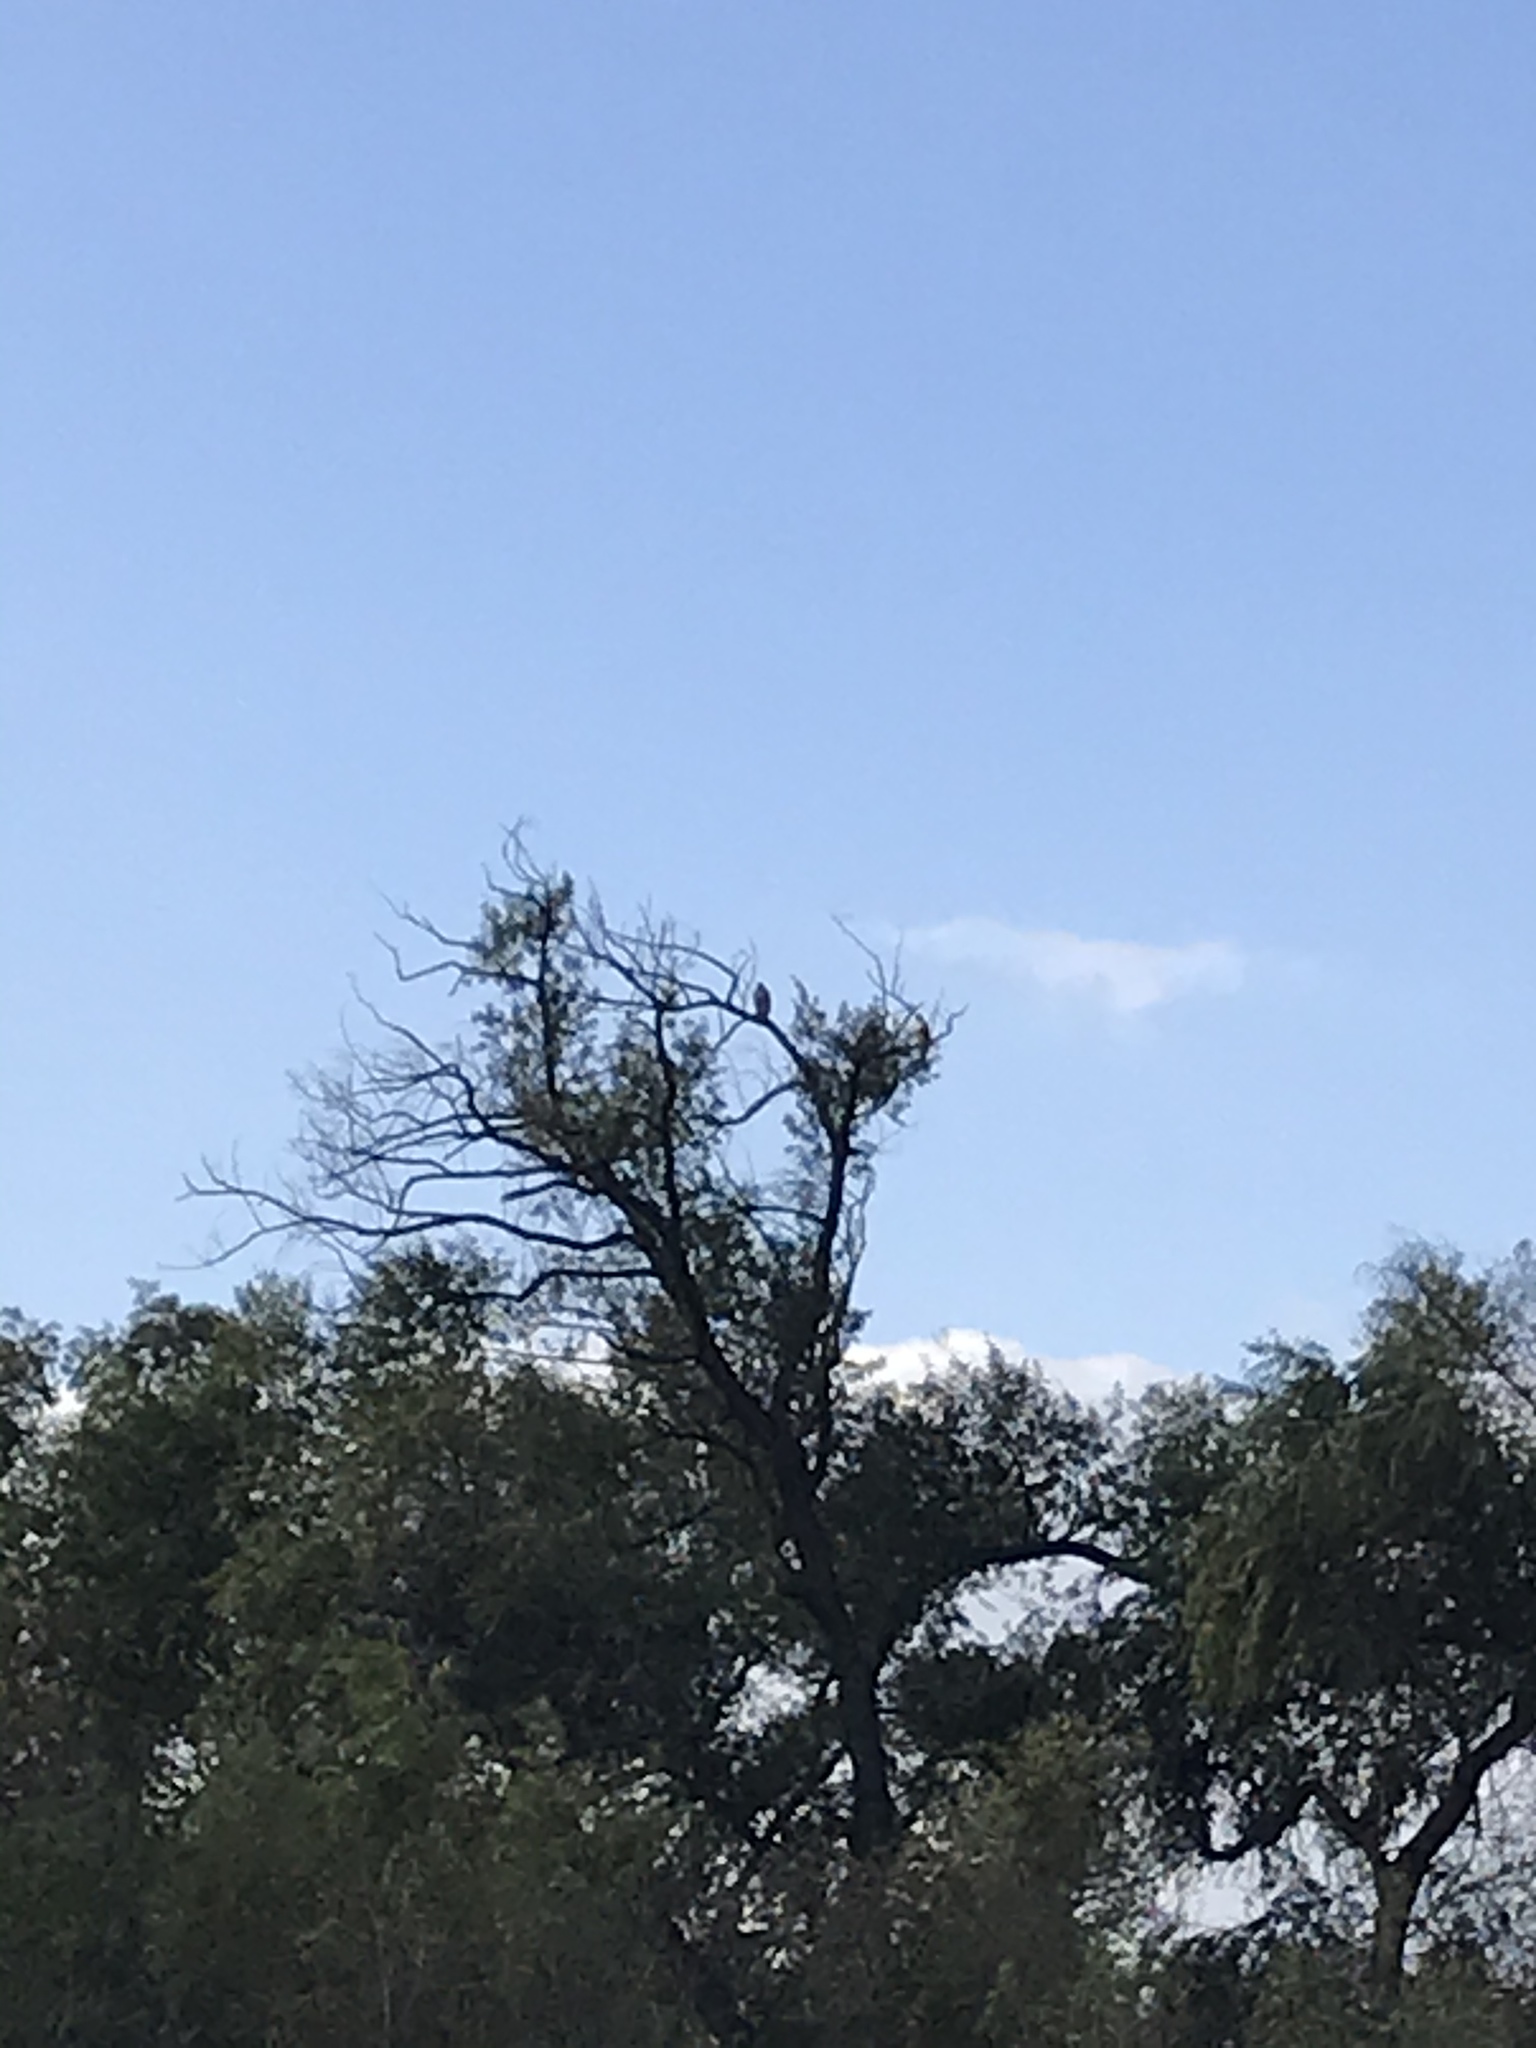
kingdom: Animalia
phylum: Chordata
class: Aves
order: Accipitriformes
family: Accipitridae
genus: Buteo
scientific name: Buteo jamaicensis
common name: Red-tailed hawk
